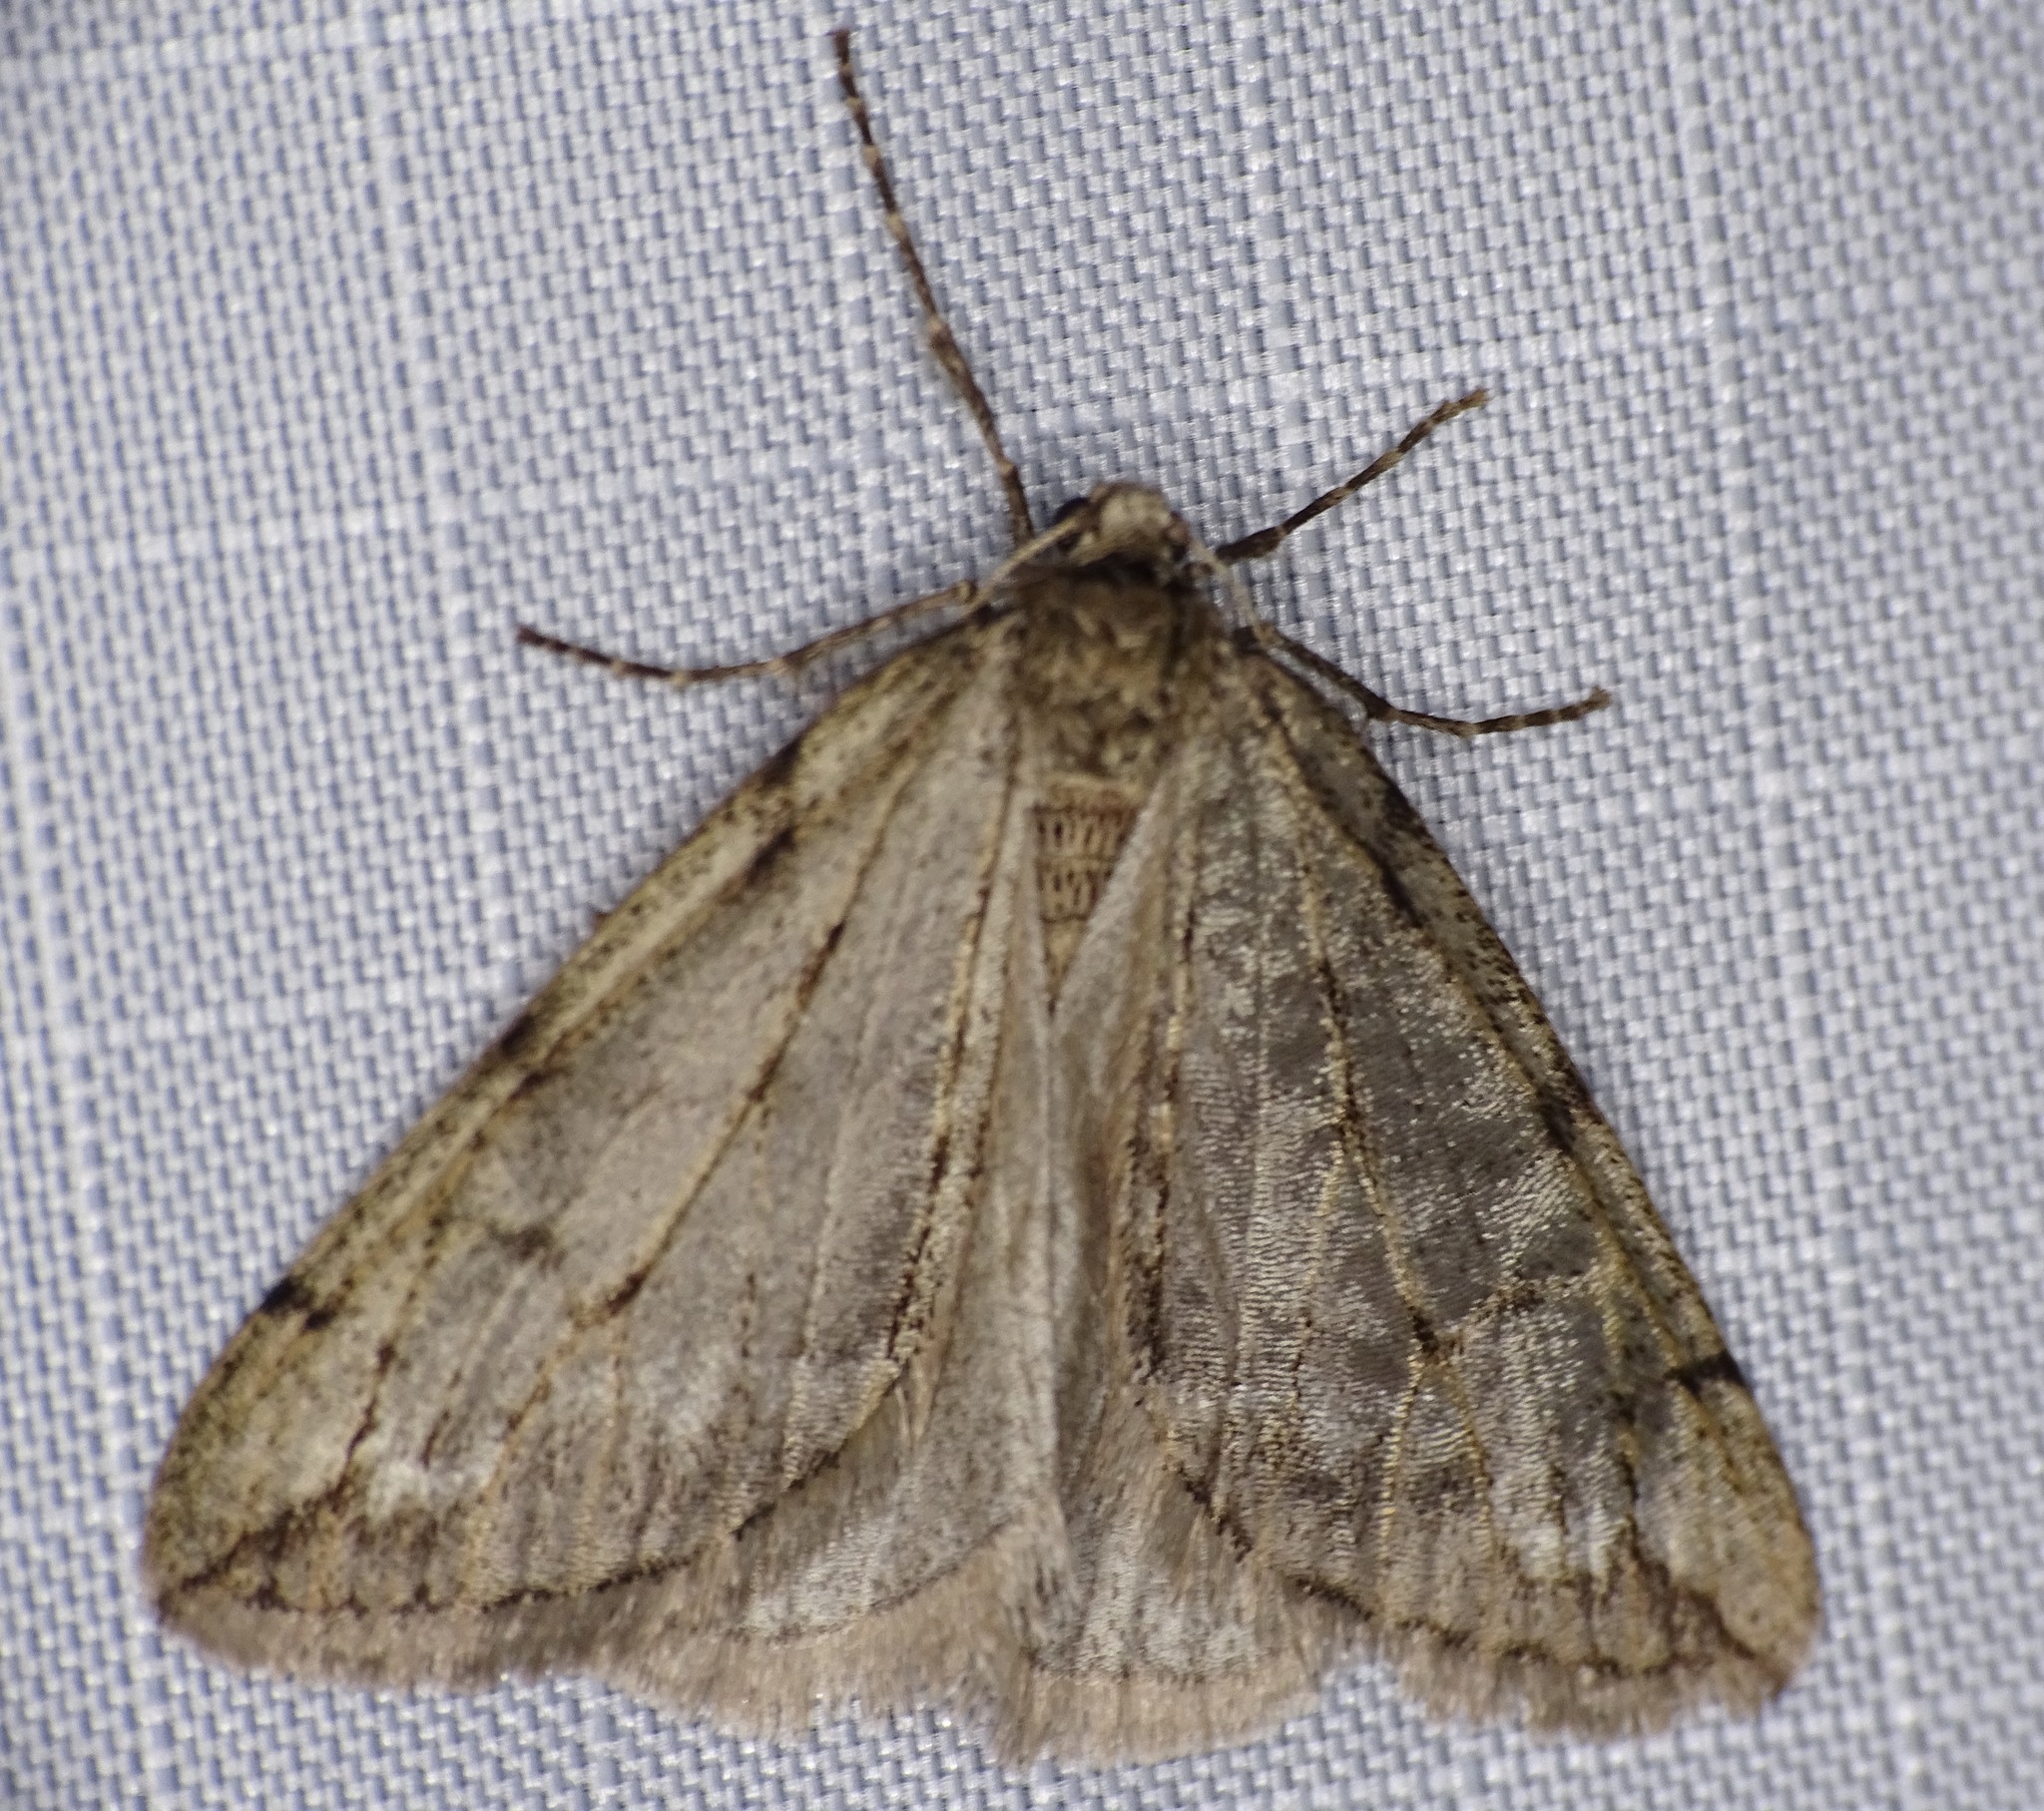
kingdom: Animalia
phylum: Arthropoda
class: Insecta
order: Lepidoptera
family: Geometridae
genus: Paleacrita
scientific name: Paleacrita vernata
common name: Spring cankerworm
